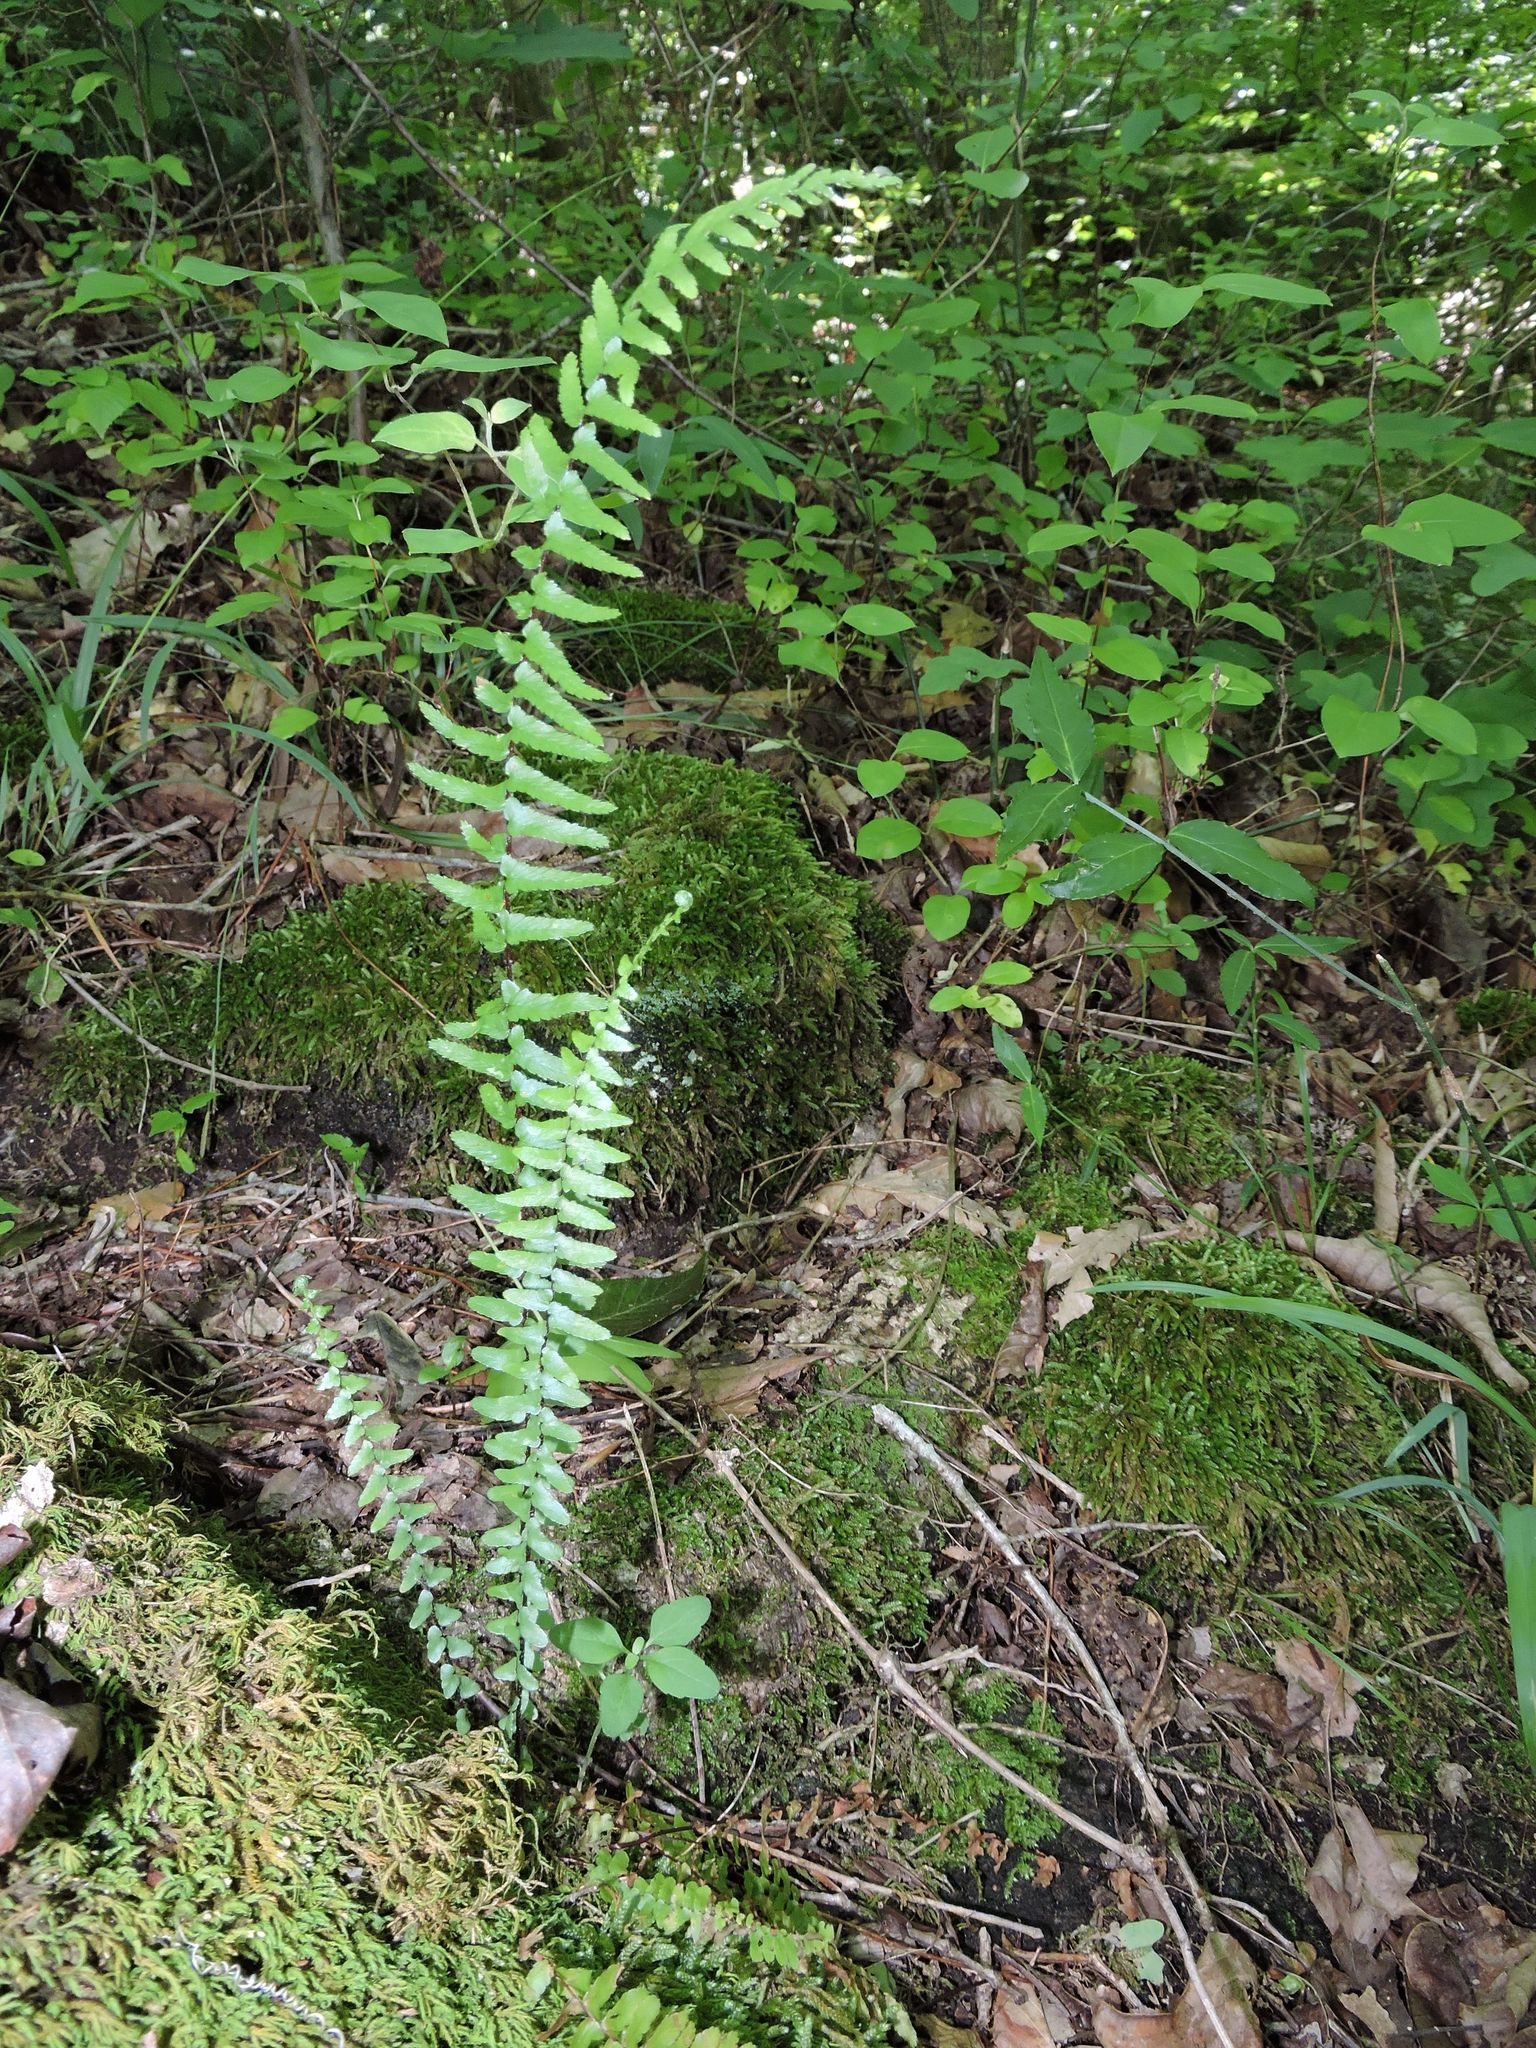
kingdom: Plantae
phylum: Tracheophyta
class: Polypodiopsida
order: Polypodiales
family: Aspleniaceae
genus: Asplenium
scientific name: Asplenium platyneuron
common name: Ebony spleenwort
